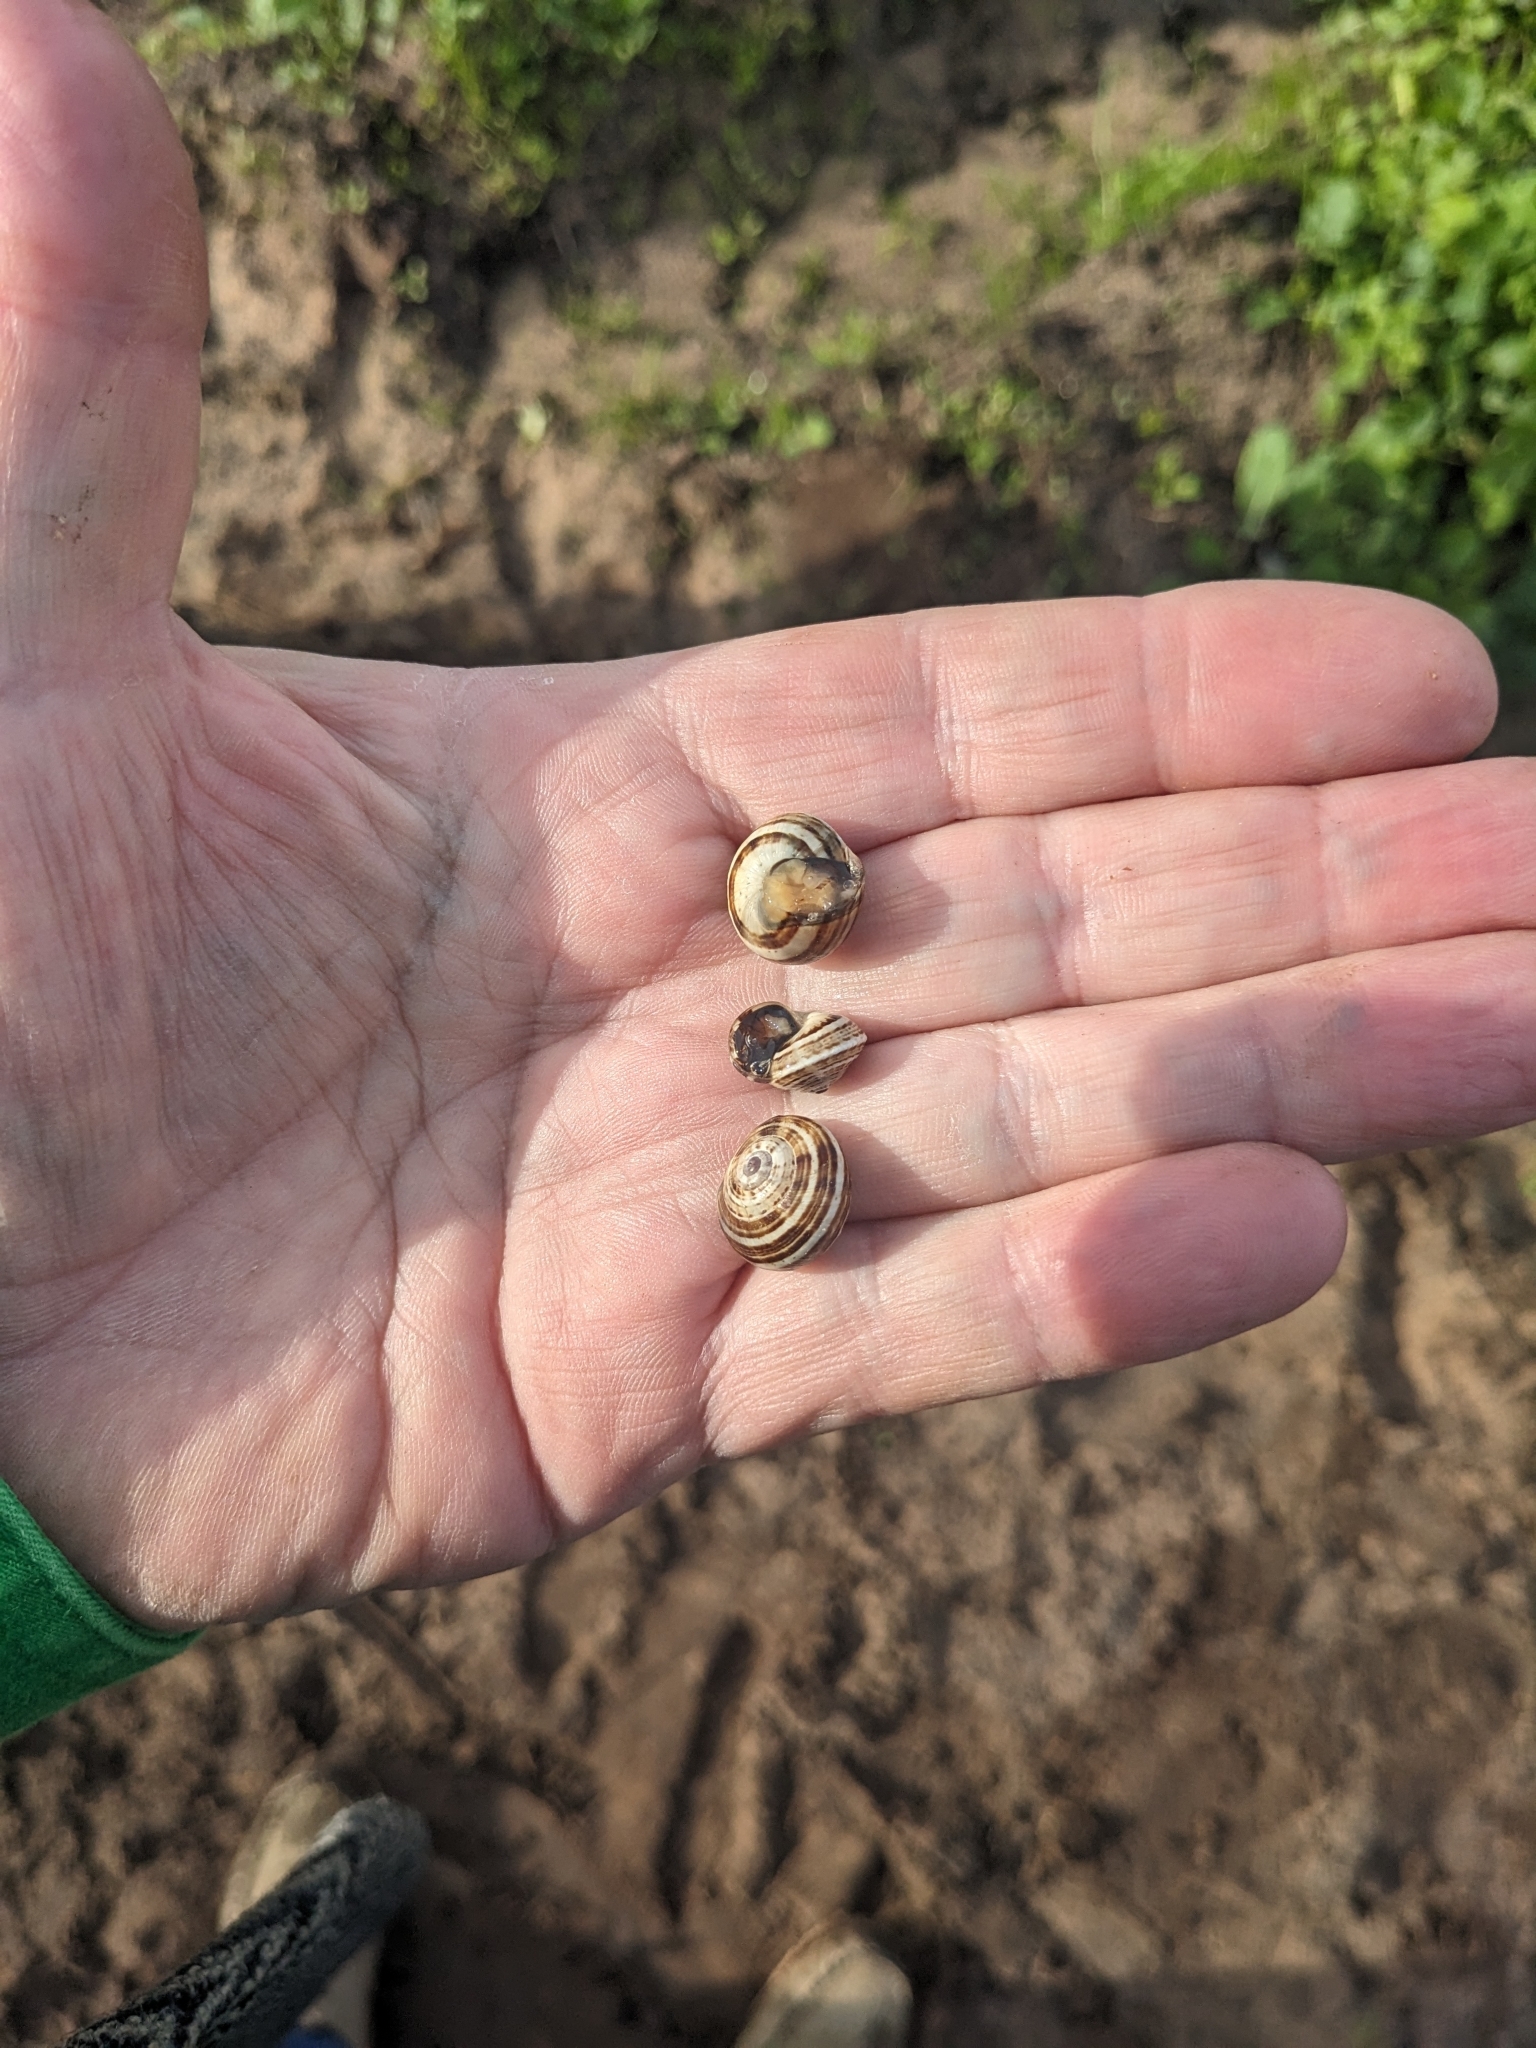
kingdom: Animalia
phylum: Mollusca
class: Gastropoda
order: Stylommatophora
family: Helicidae
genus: Theba
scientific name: Theba pisana
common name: White snail
